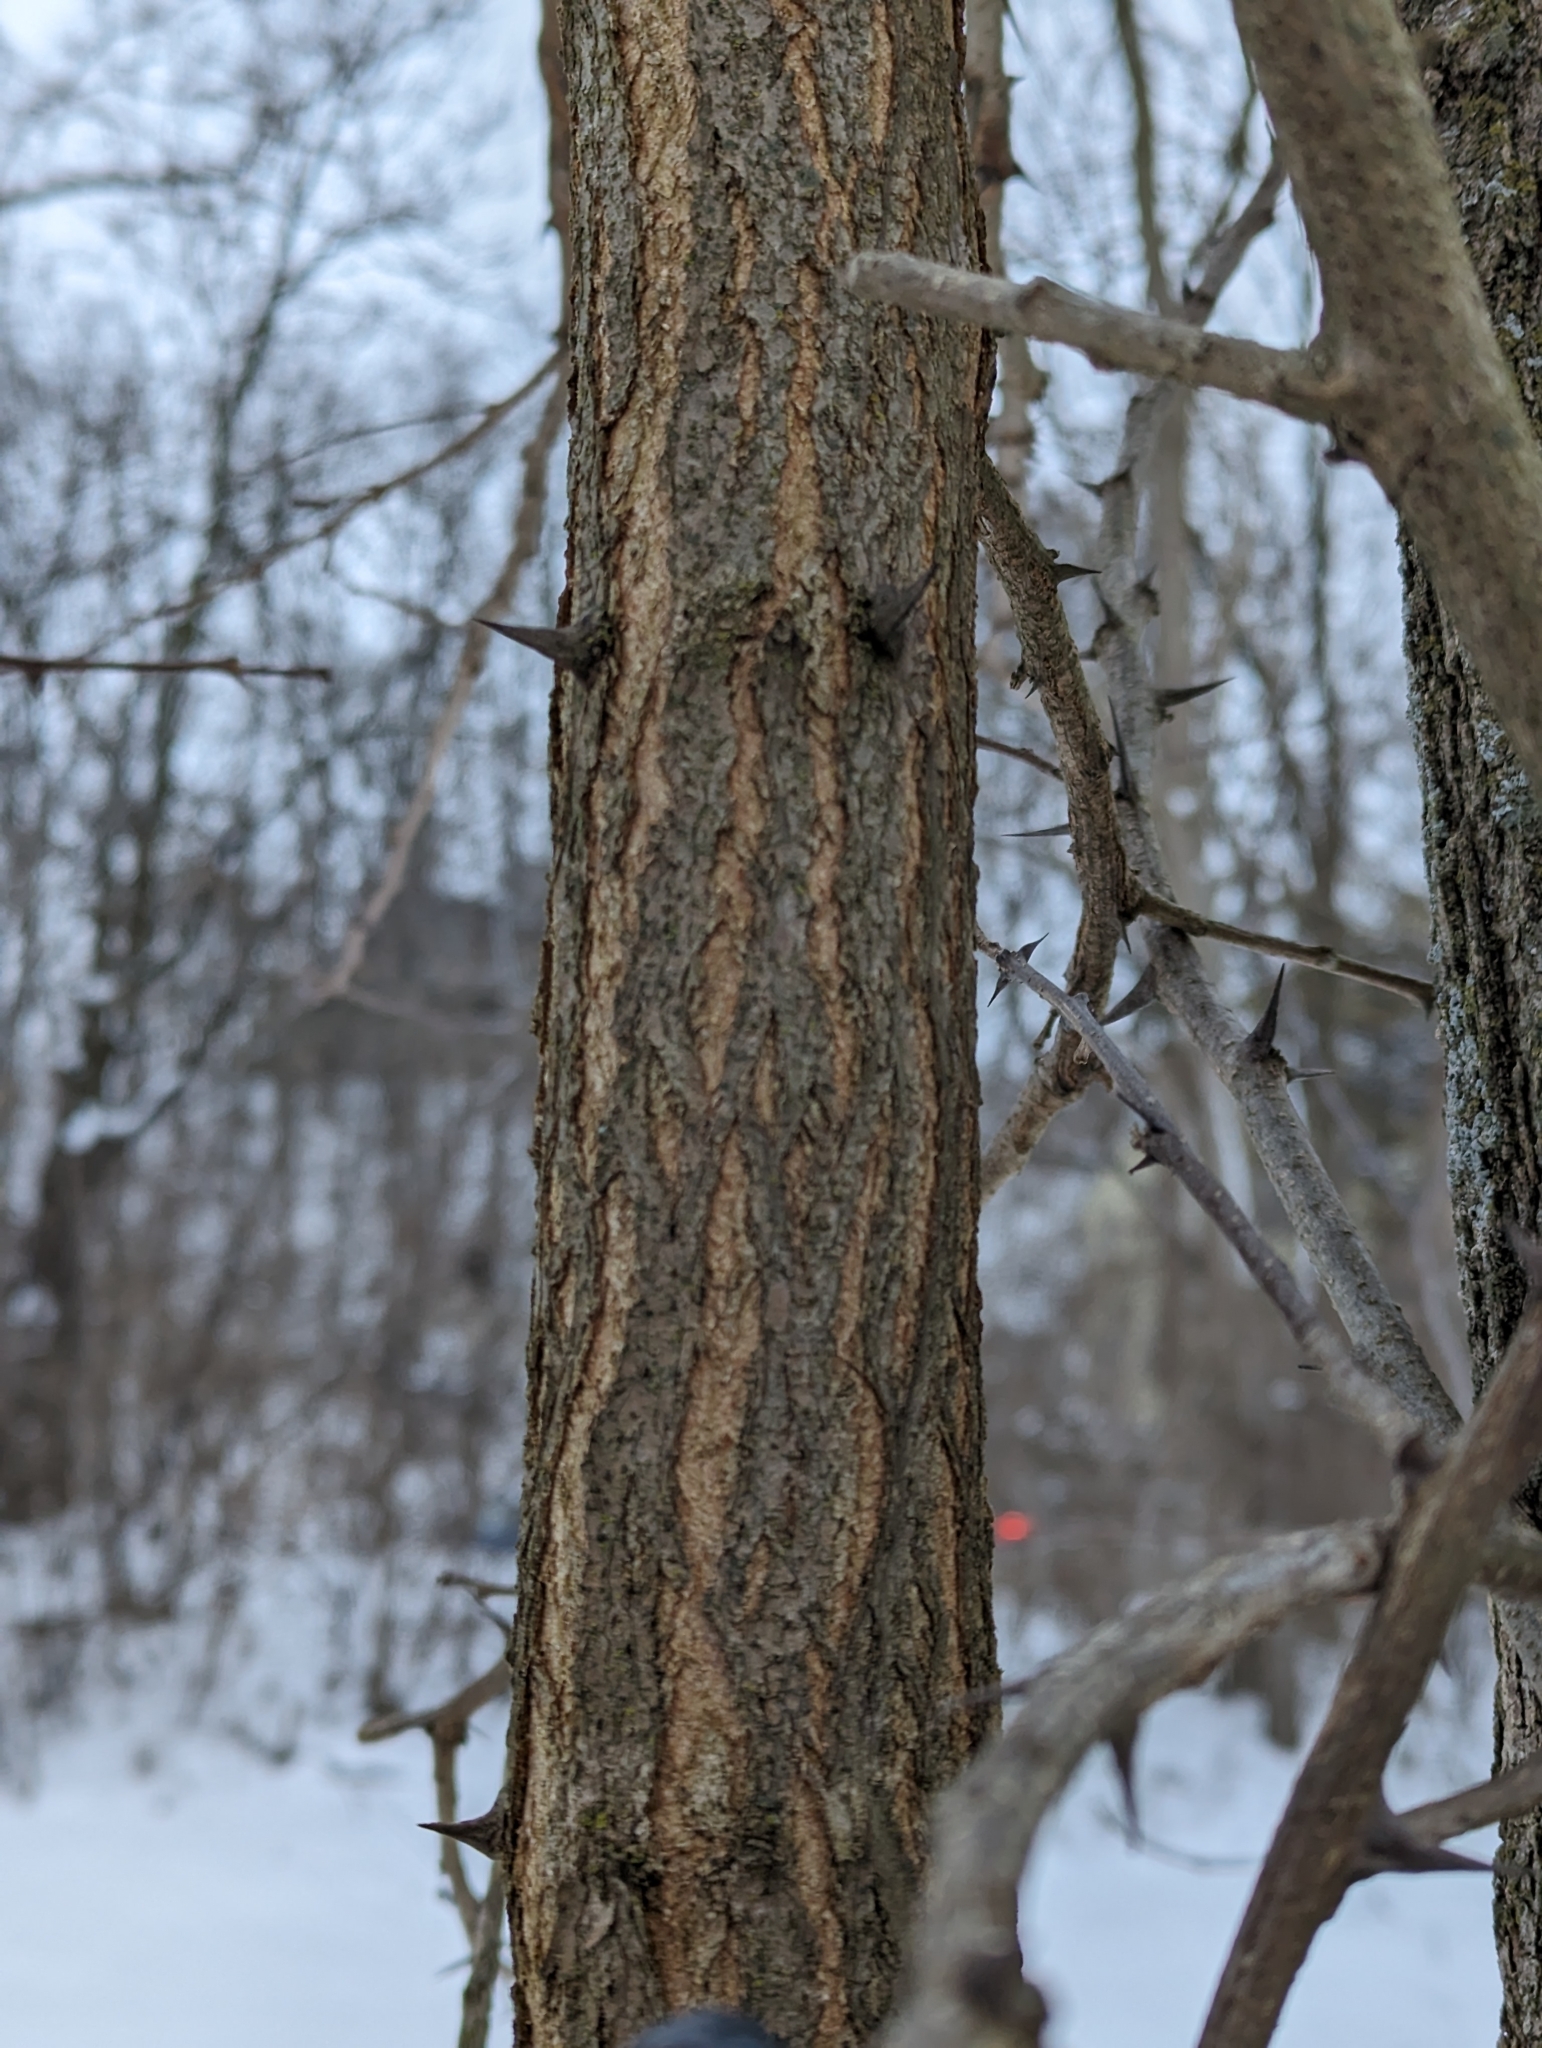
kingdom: Plantae
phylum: Tracheophyta
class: Magnoliopsida
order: Fabales
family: Fabaceae
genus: Robinia
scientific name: Robinia pseudoacacia
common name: Black locust
